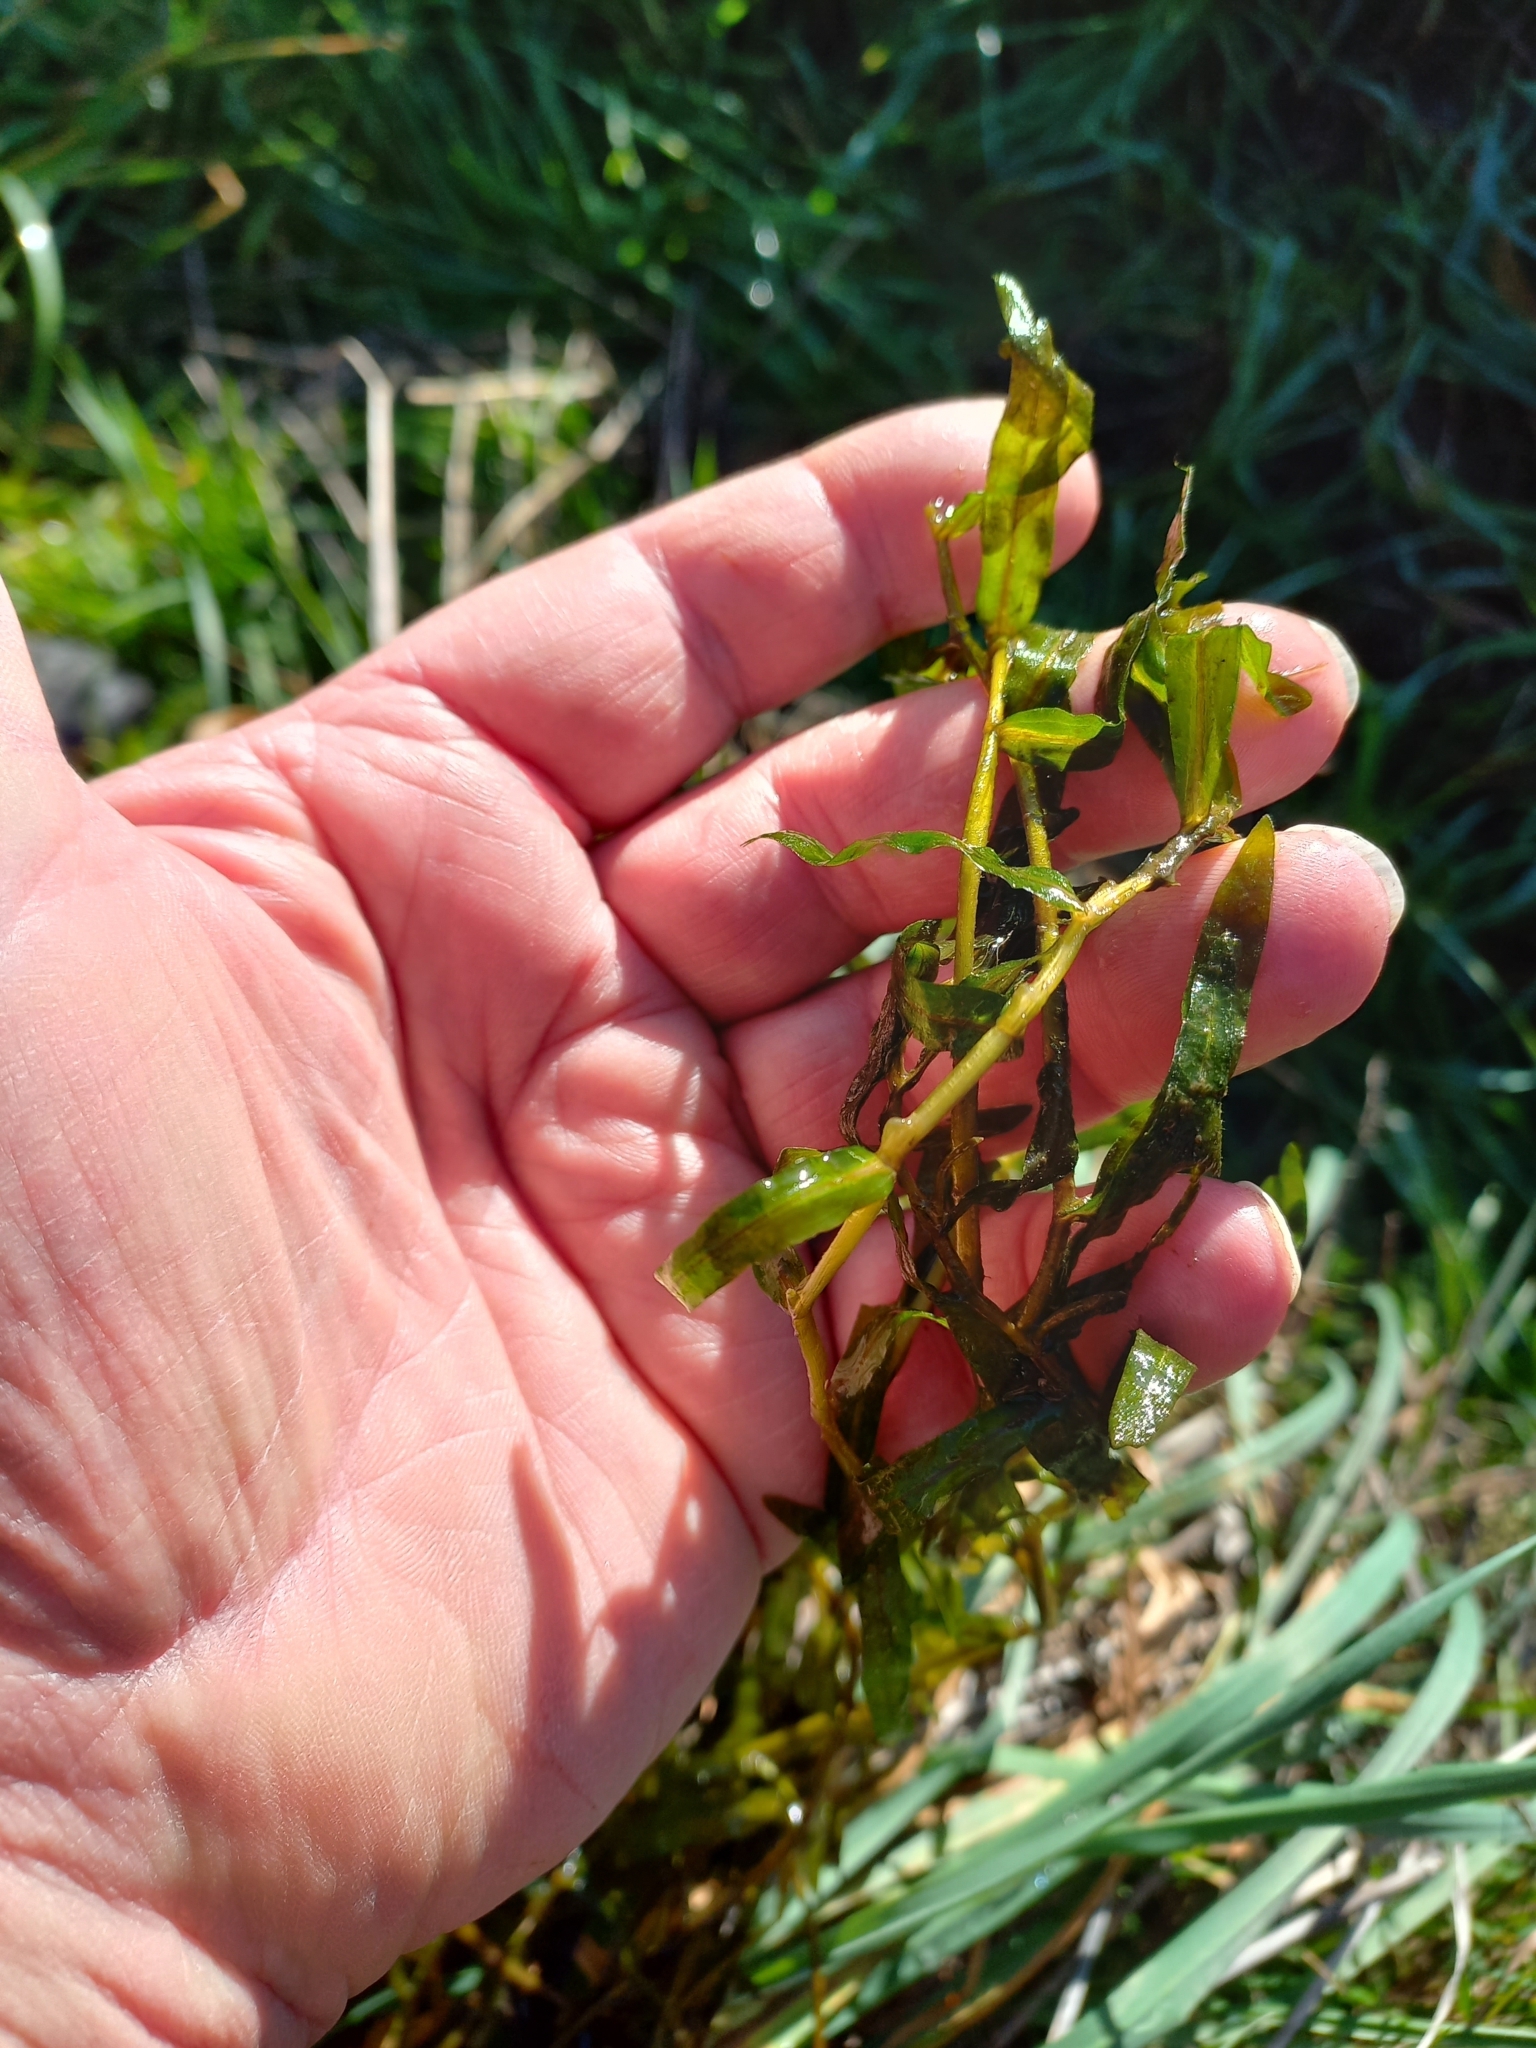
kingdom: Plantae
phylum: Tracheophyta
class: Liliopsida
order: Alismatales
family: Potamogetonaceae
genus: Potamogeton
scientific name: Potamogeton crispus
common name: Curled pondweed
